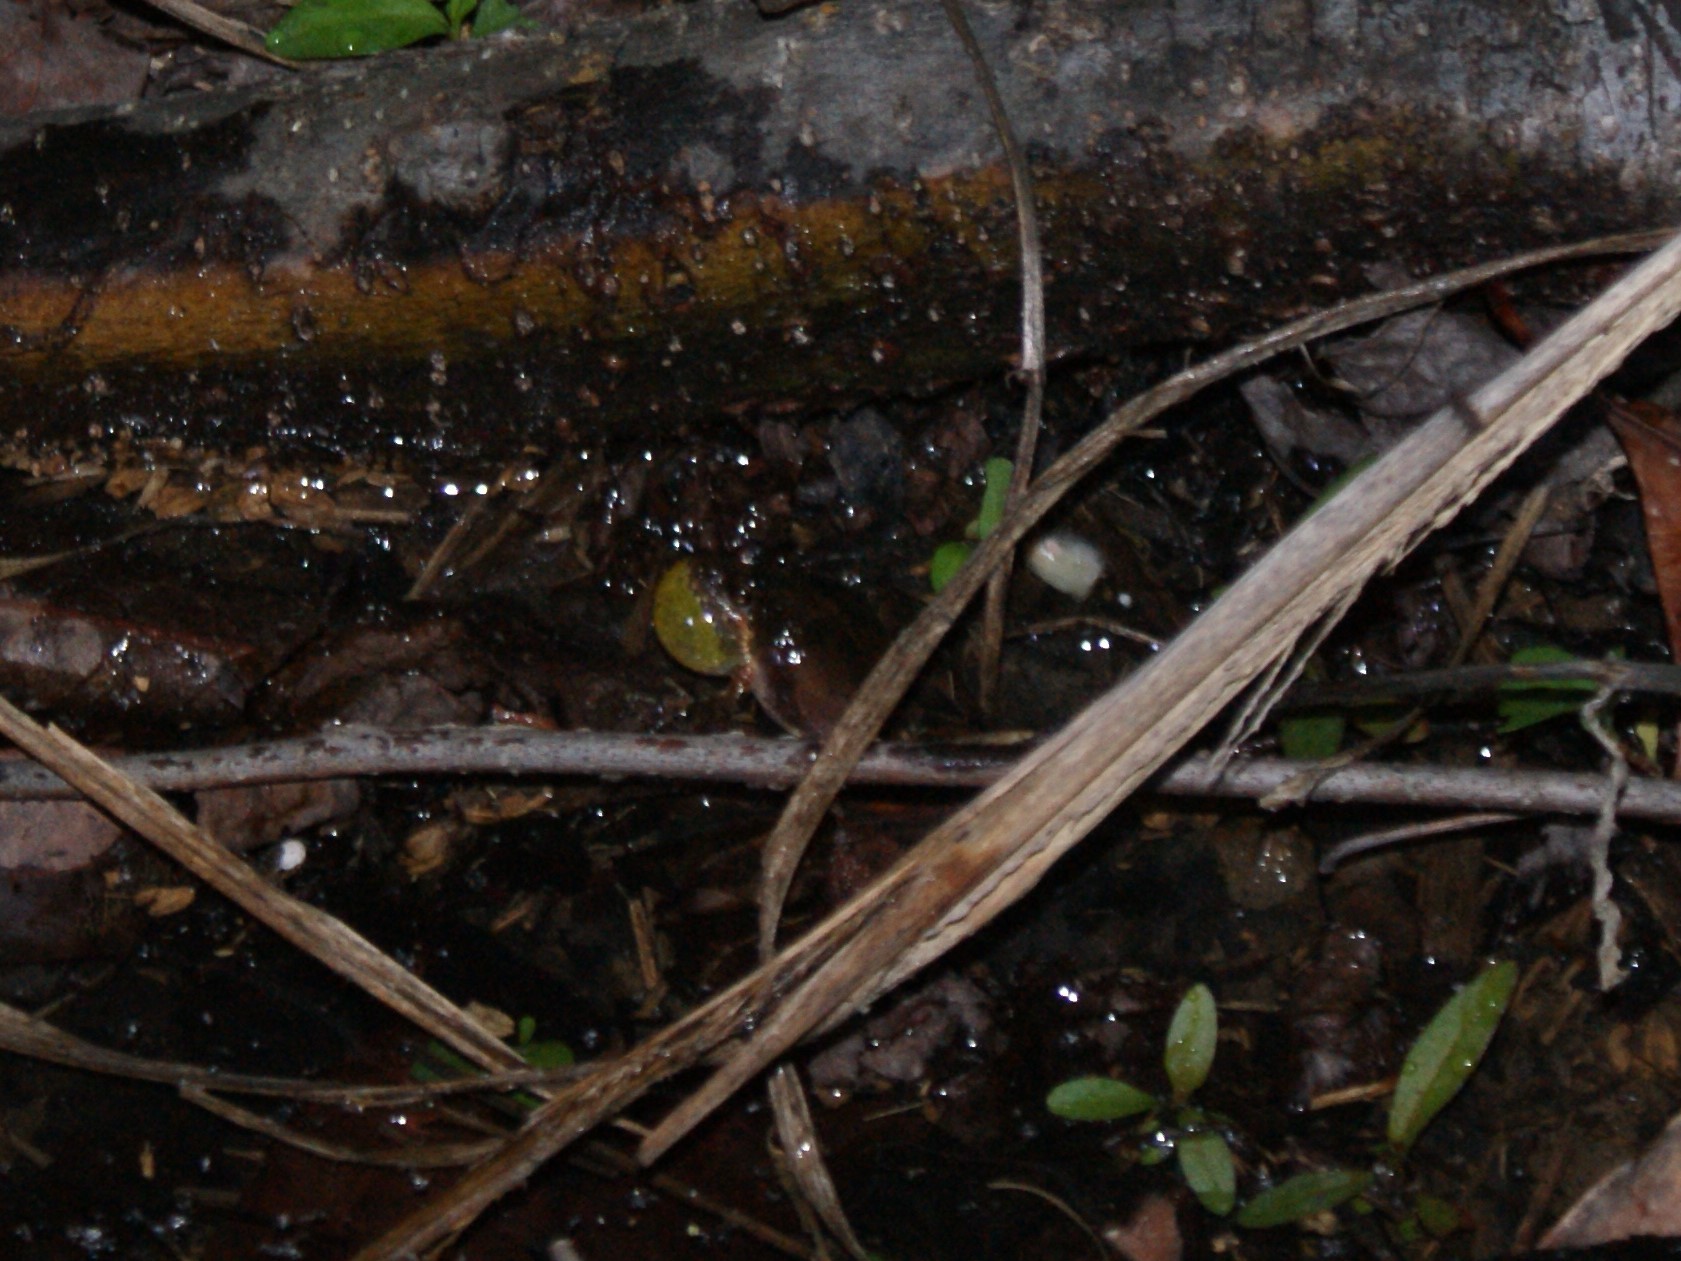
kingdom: Animalia
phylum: Chordata
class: Amphibia
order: Anura
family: Hylidae
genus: Acris
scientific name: Acris crepitans
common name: Northern cricket frog
